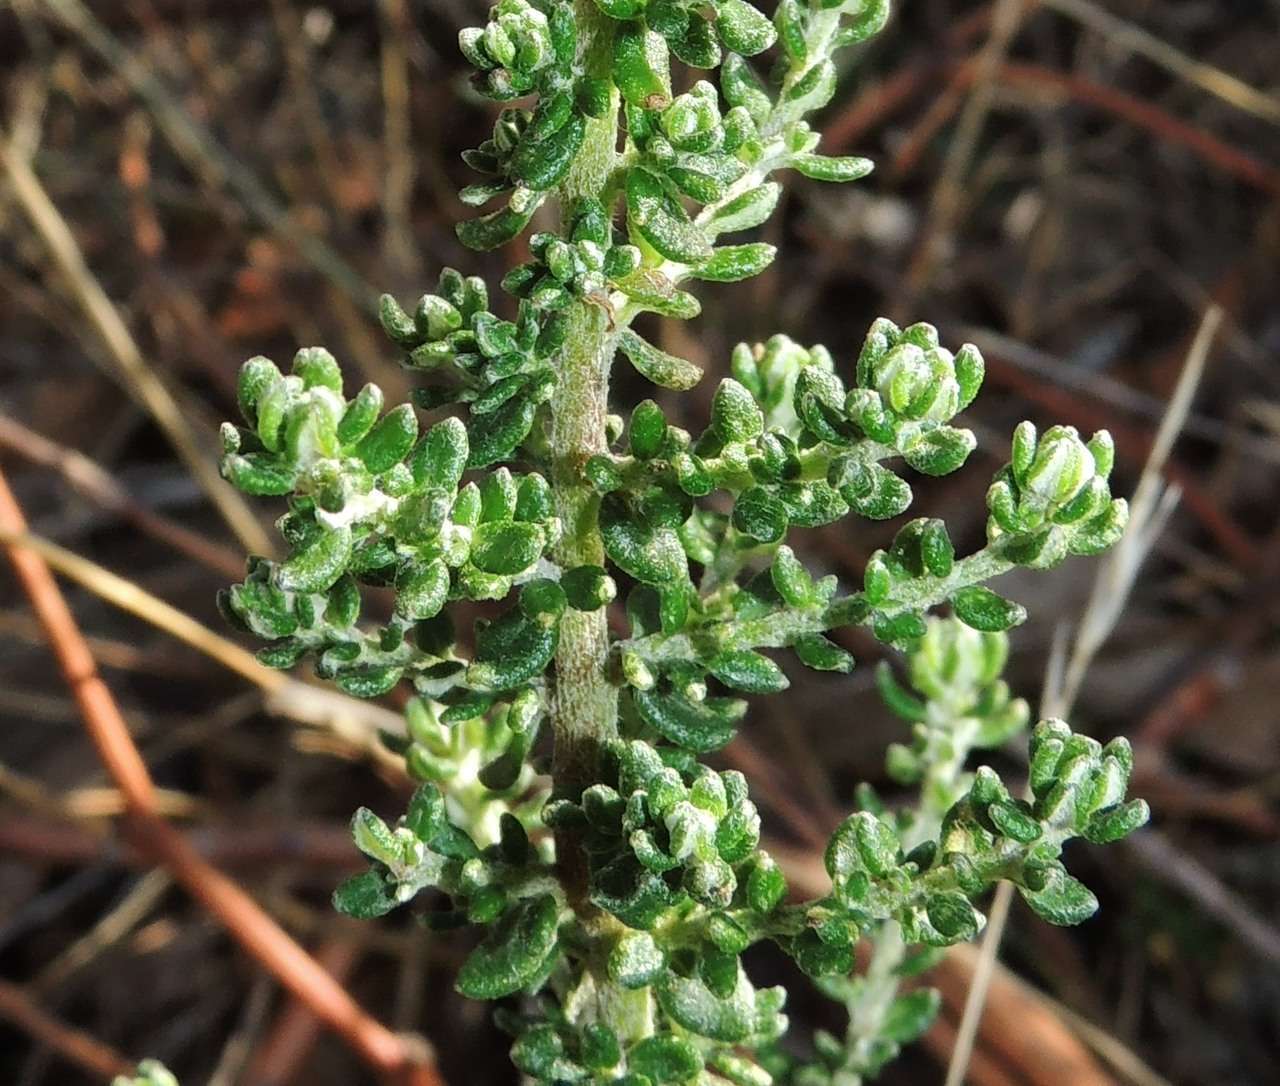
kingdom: Plantae
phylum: Tracheophyta
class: Magnoliopsida
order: Asterales
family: Asteraceae
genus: Olearia
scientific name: Olearia minor
